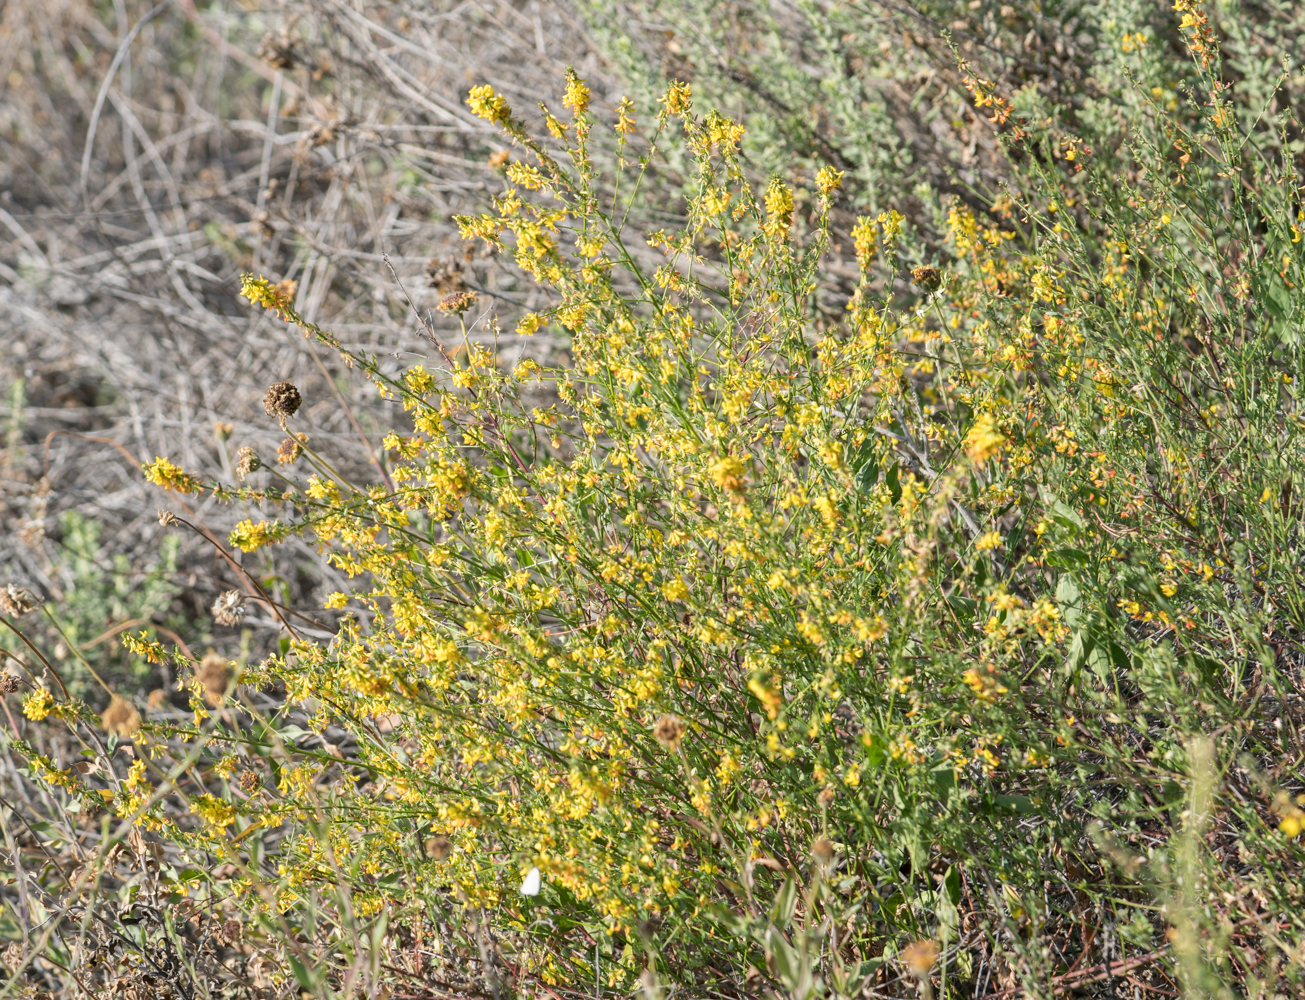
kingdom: Plantae
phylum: Tracheophyta
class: Magnoliopsida
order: Fabales
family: Fabaceae
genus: Acmispon
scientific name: Acmispon glaber
